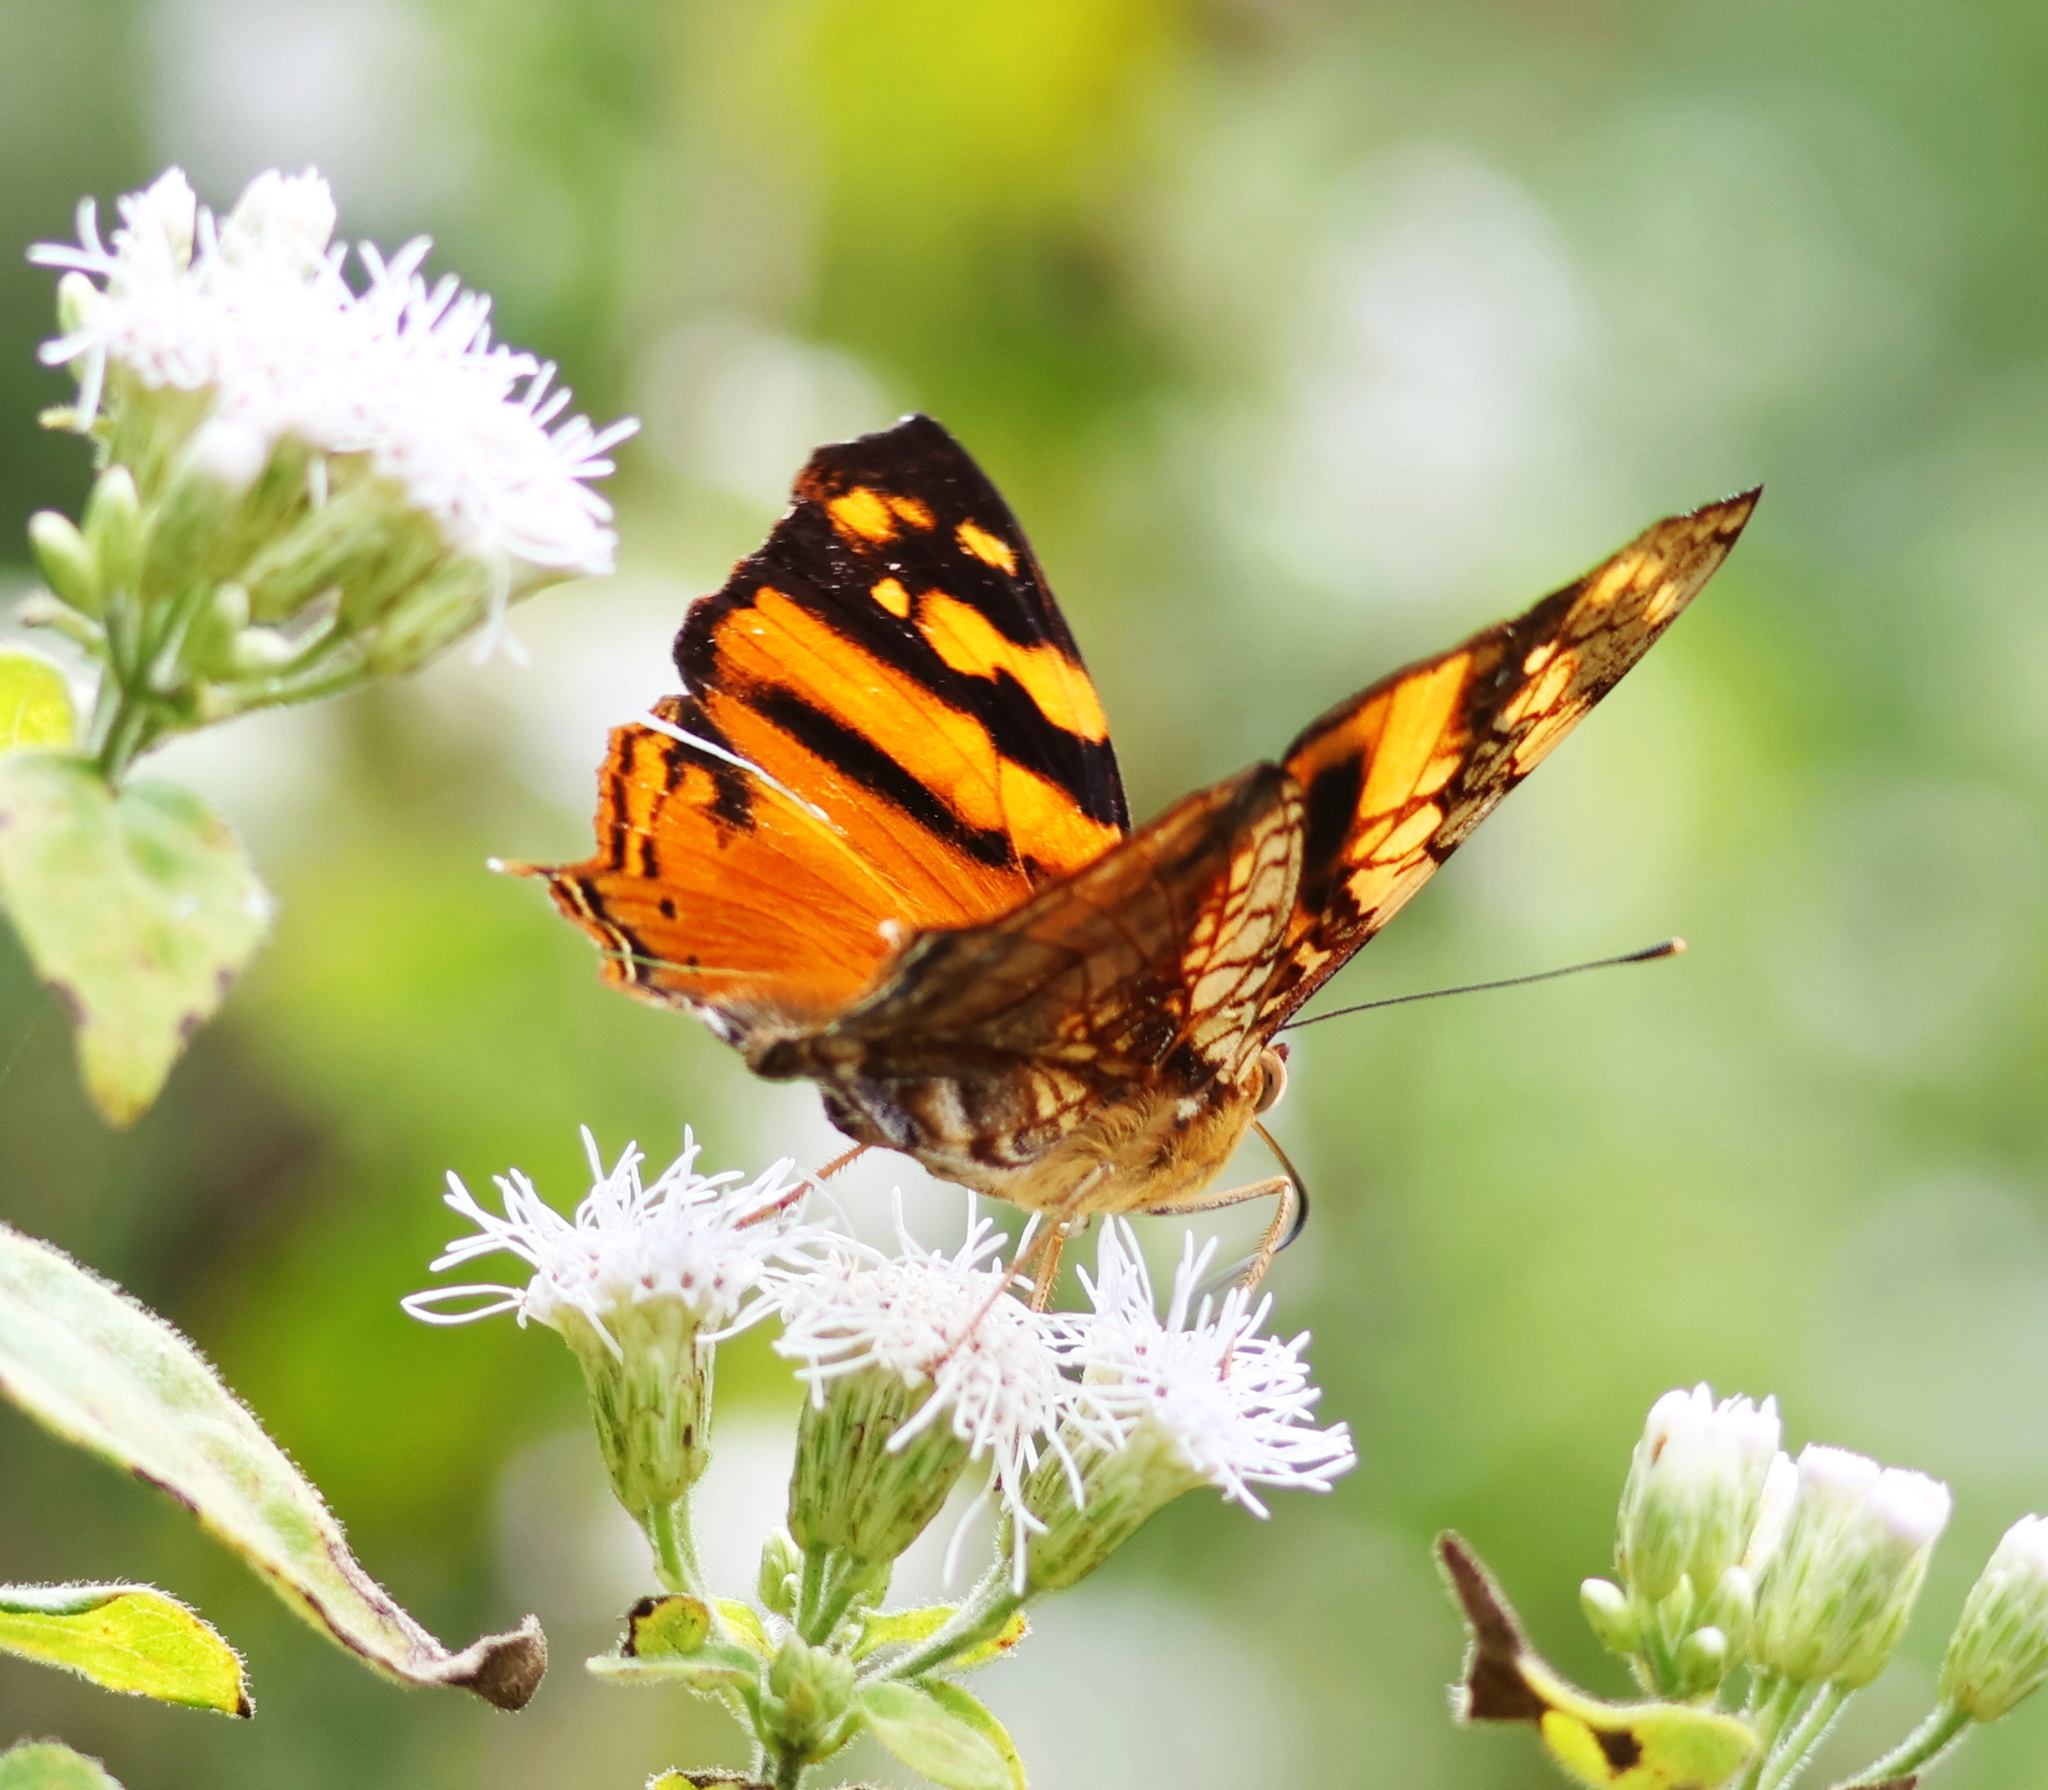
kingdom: Animalia
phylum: Arthropoda
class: Insecta
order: Lepidoptera
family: Nymphalidae
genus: Hypanartia
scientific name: Hypanartia lethe
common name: Orange mapwing
